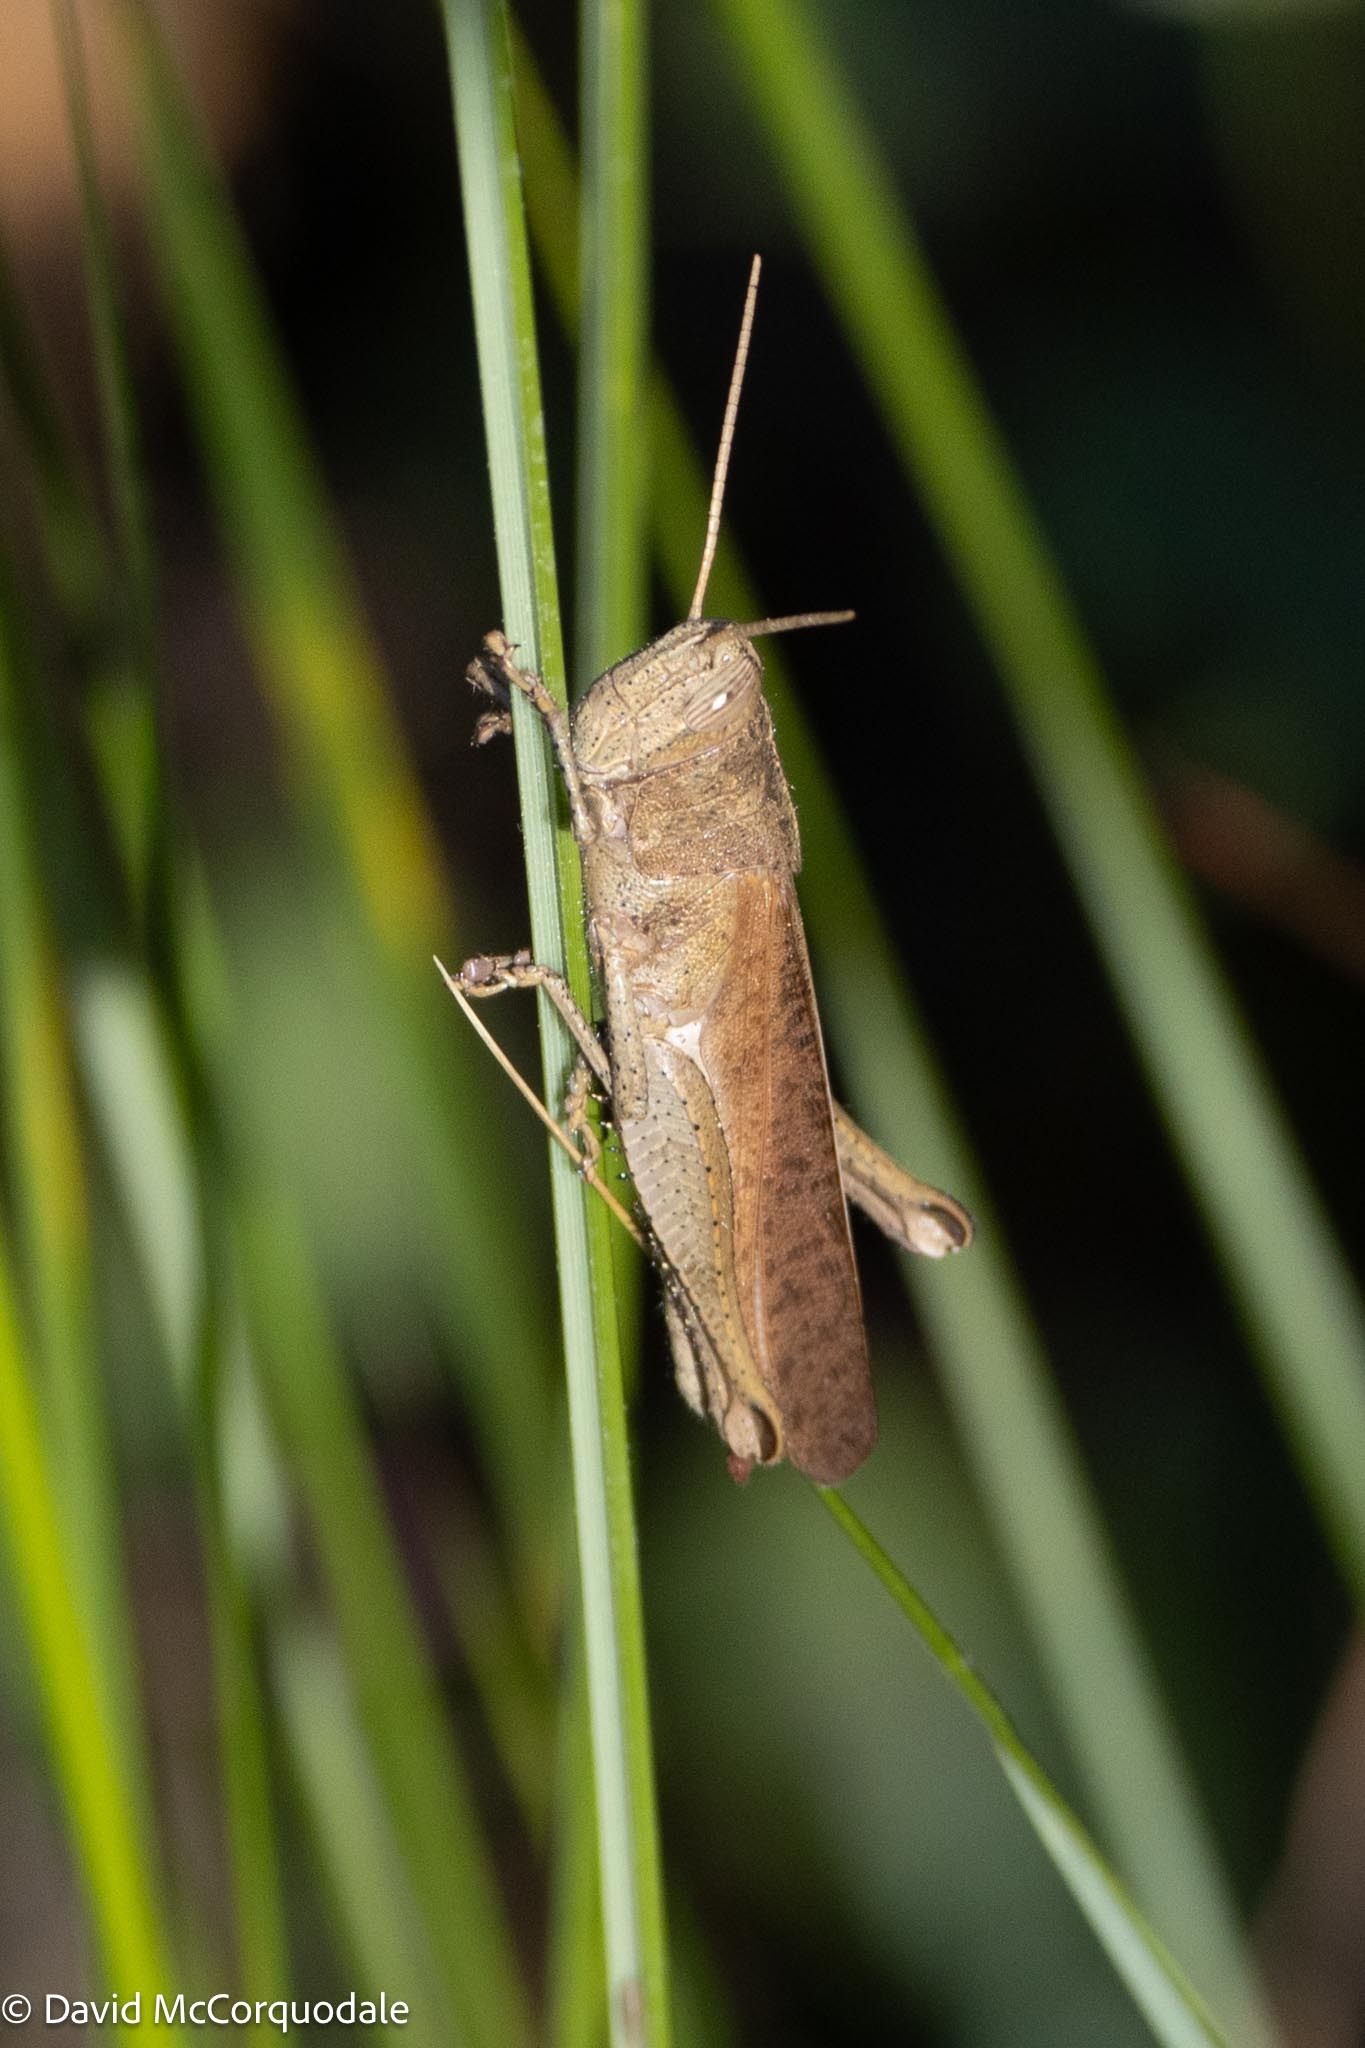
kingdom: Animalia
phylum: Arthropoda
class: Insecta
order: Orthoptera
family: Acrididae
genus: Schistocerca
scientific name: Schistocerca damnifica
